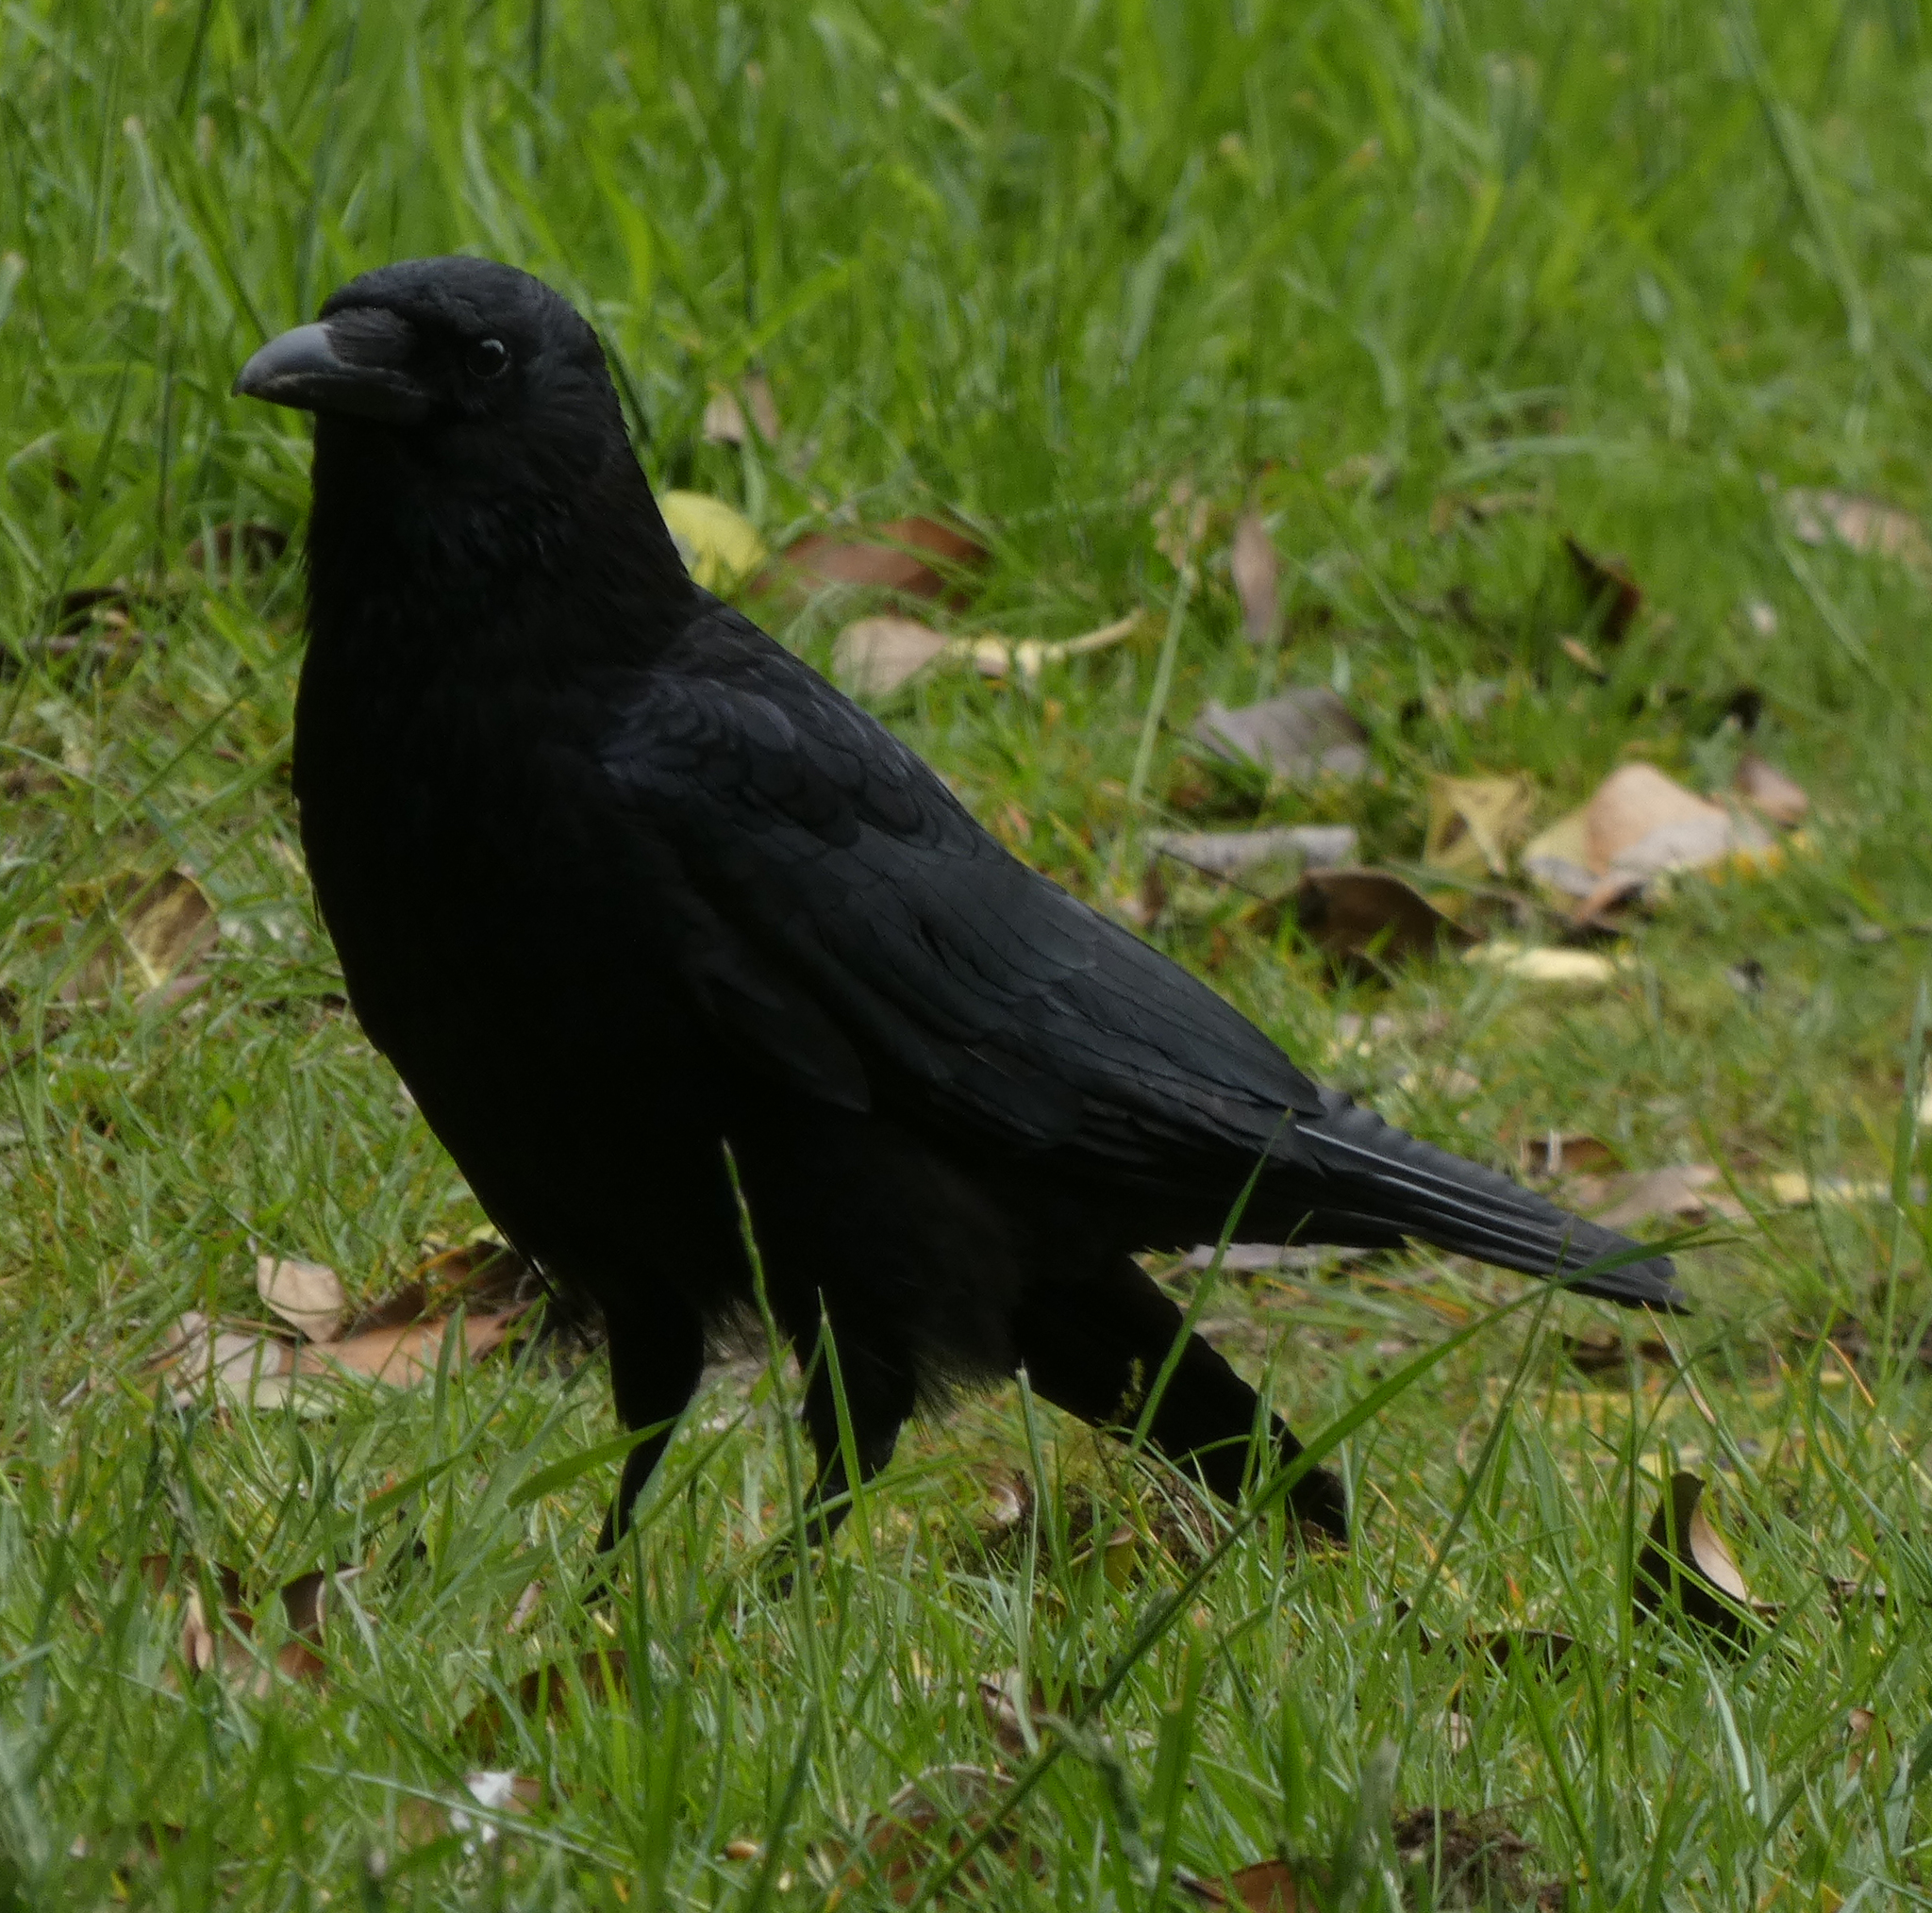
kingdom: Animalia
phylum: Chordata
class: Aves
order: Passeriformes
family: Corvidae
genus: Corvus
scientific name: Corvus corone
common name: Carrion crow
